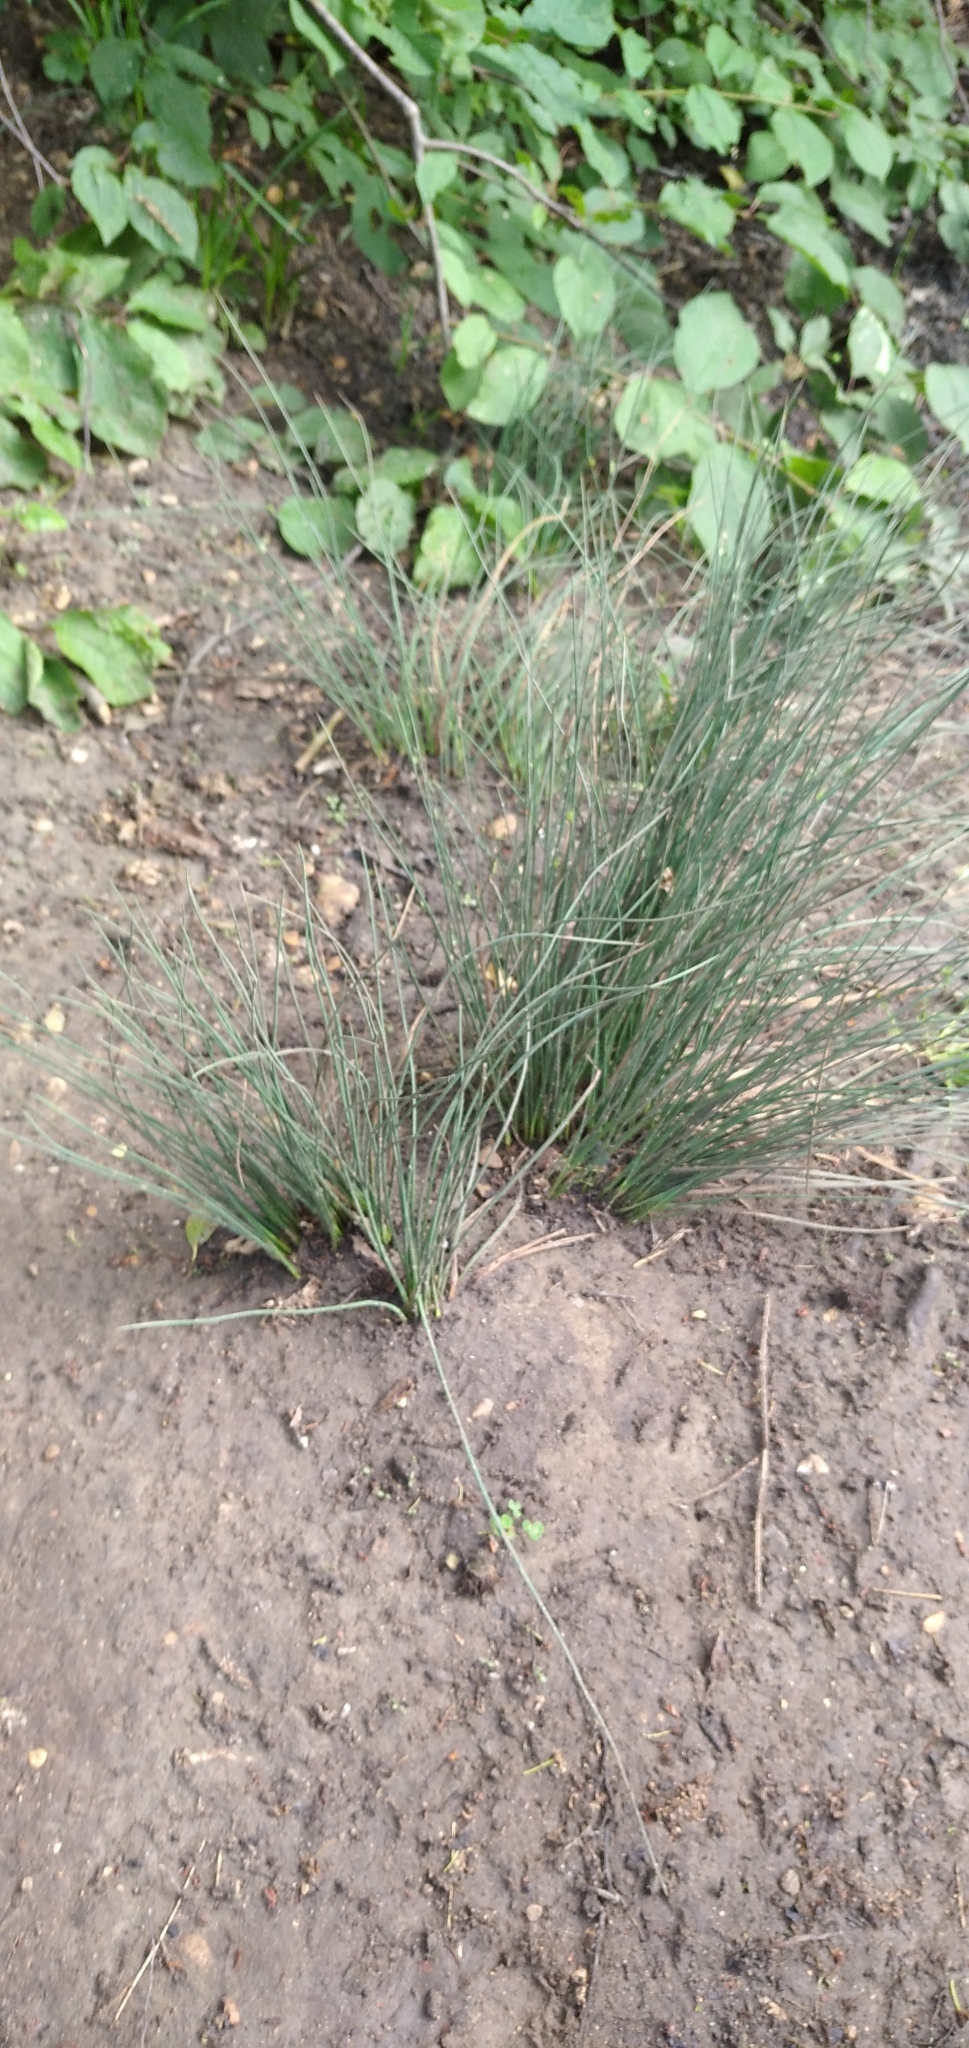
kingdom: Plantae
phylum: Tracheophyta
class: Liliopsida
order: Poales
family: Juncaceae
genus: Juncus
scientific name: Juncus inflexus
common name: Hard rush
